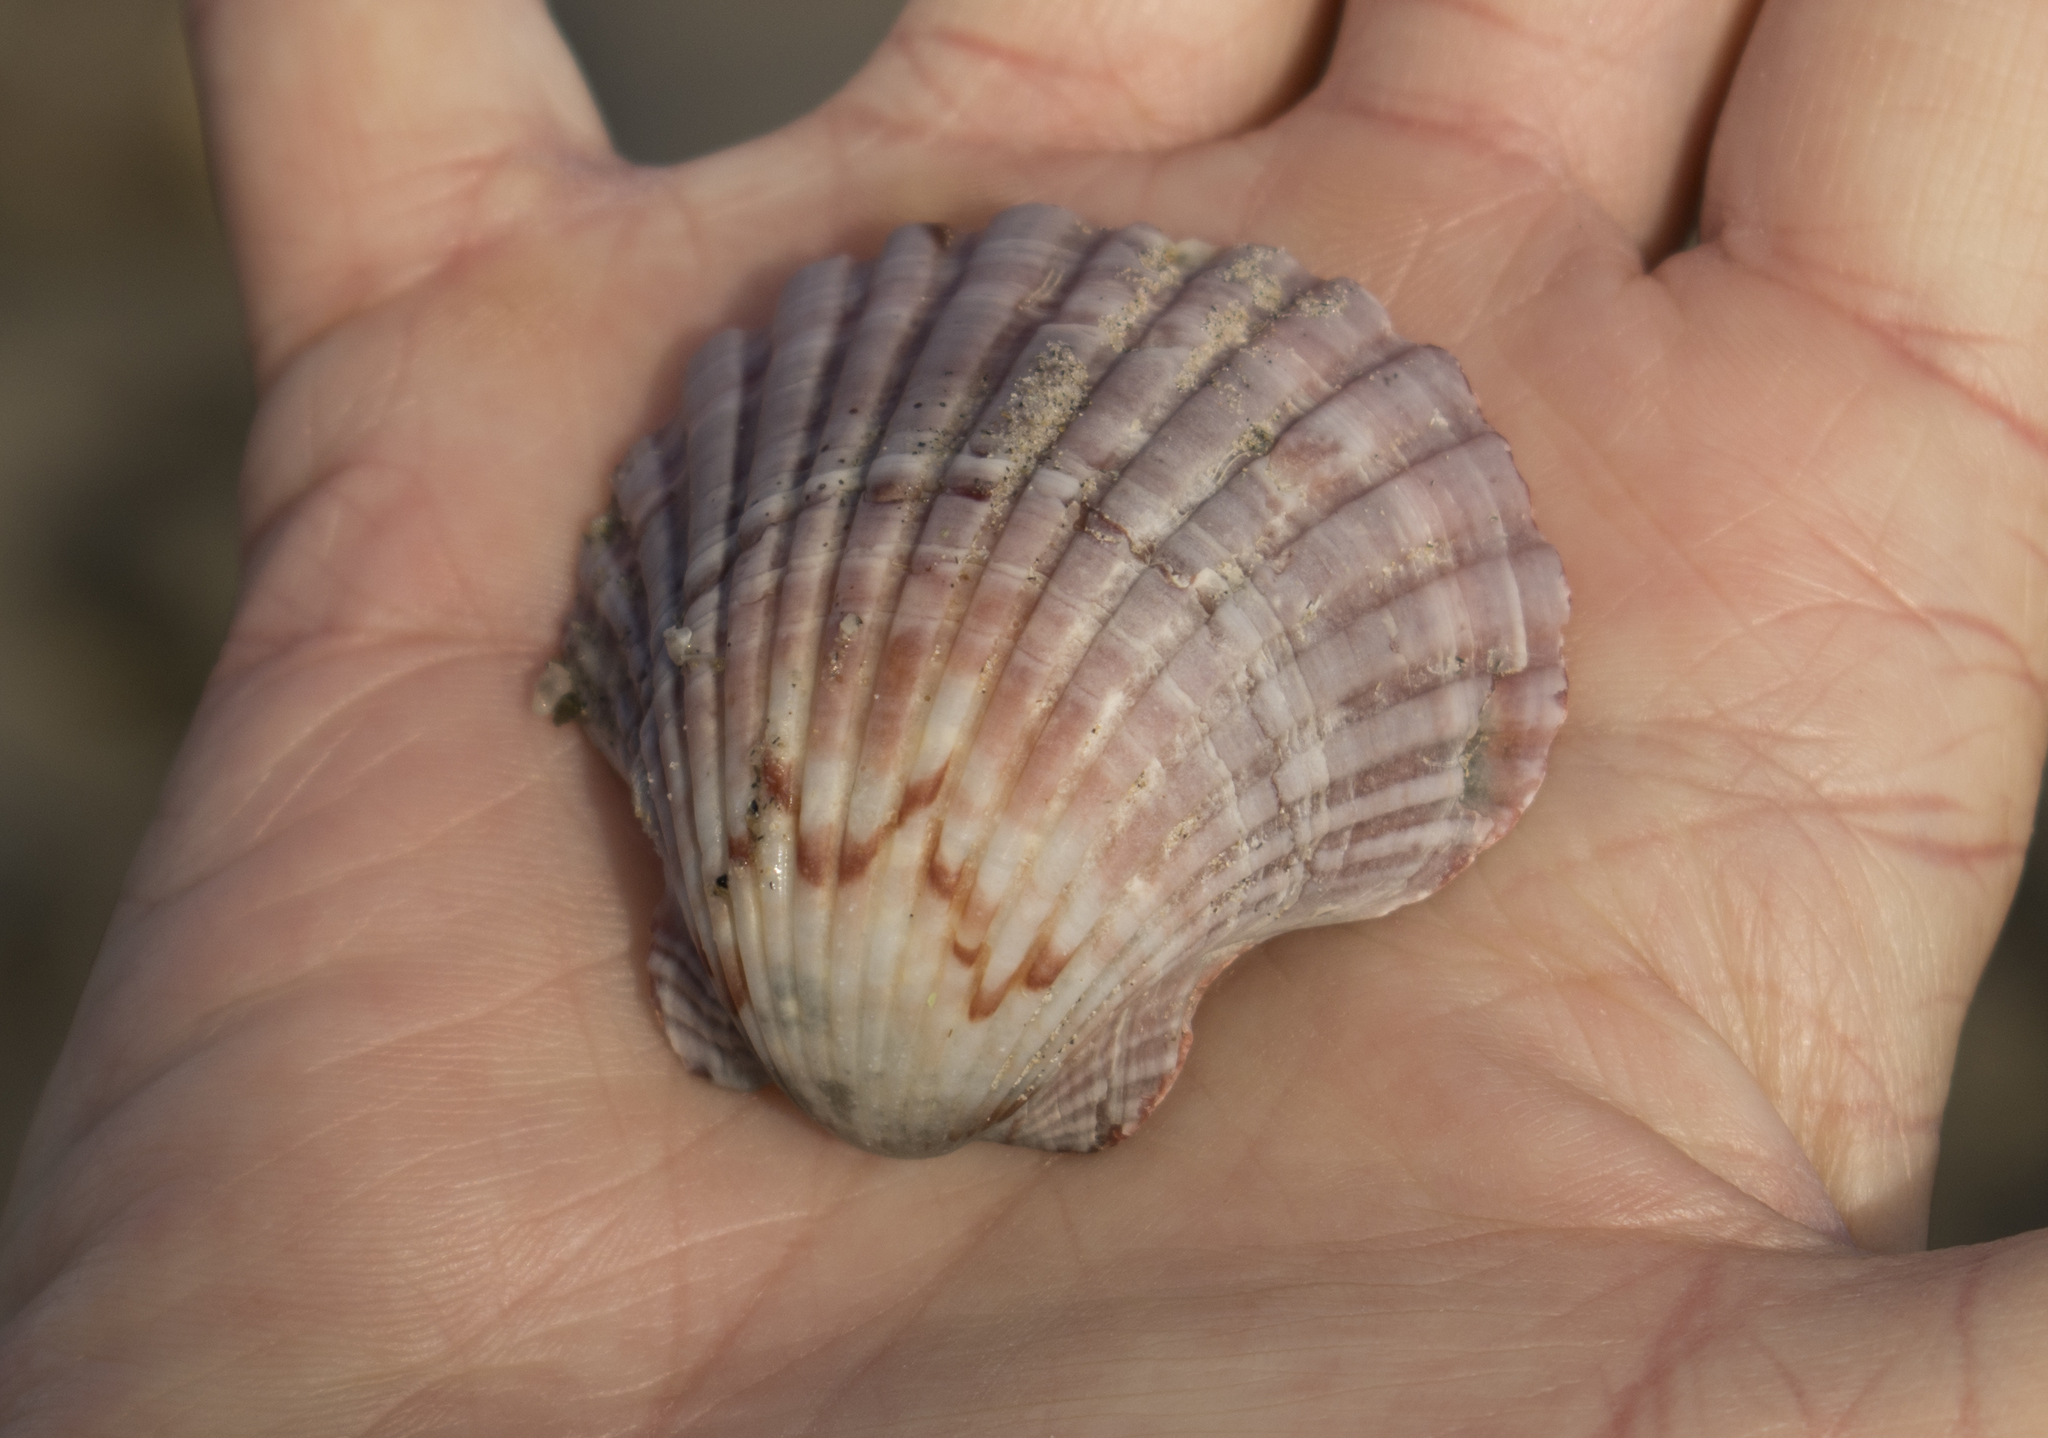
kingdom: Animalia
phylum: Mollusca
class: Bivalvia
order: Pectinida
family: Pectinidae
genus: Pecten
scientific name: Pecten fumatus
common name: Australian scallop
